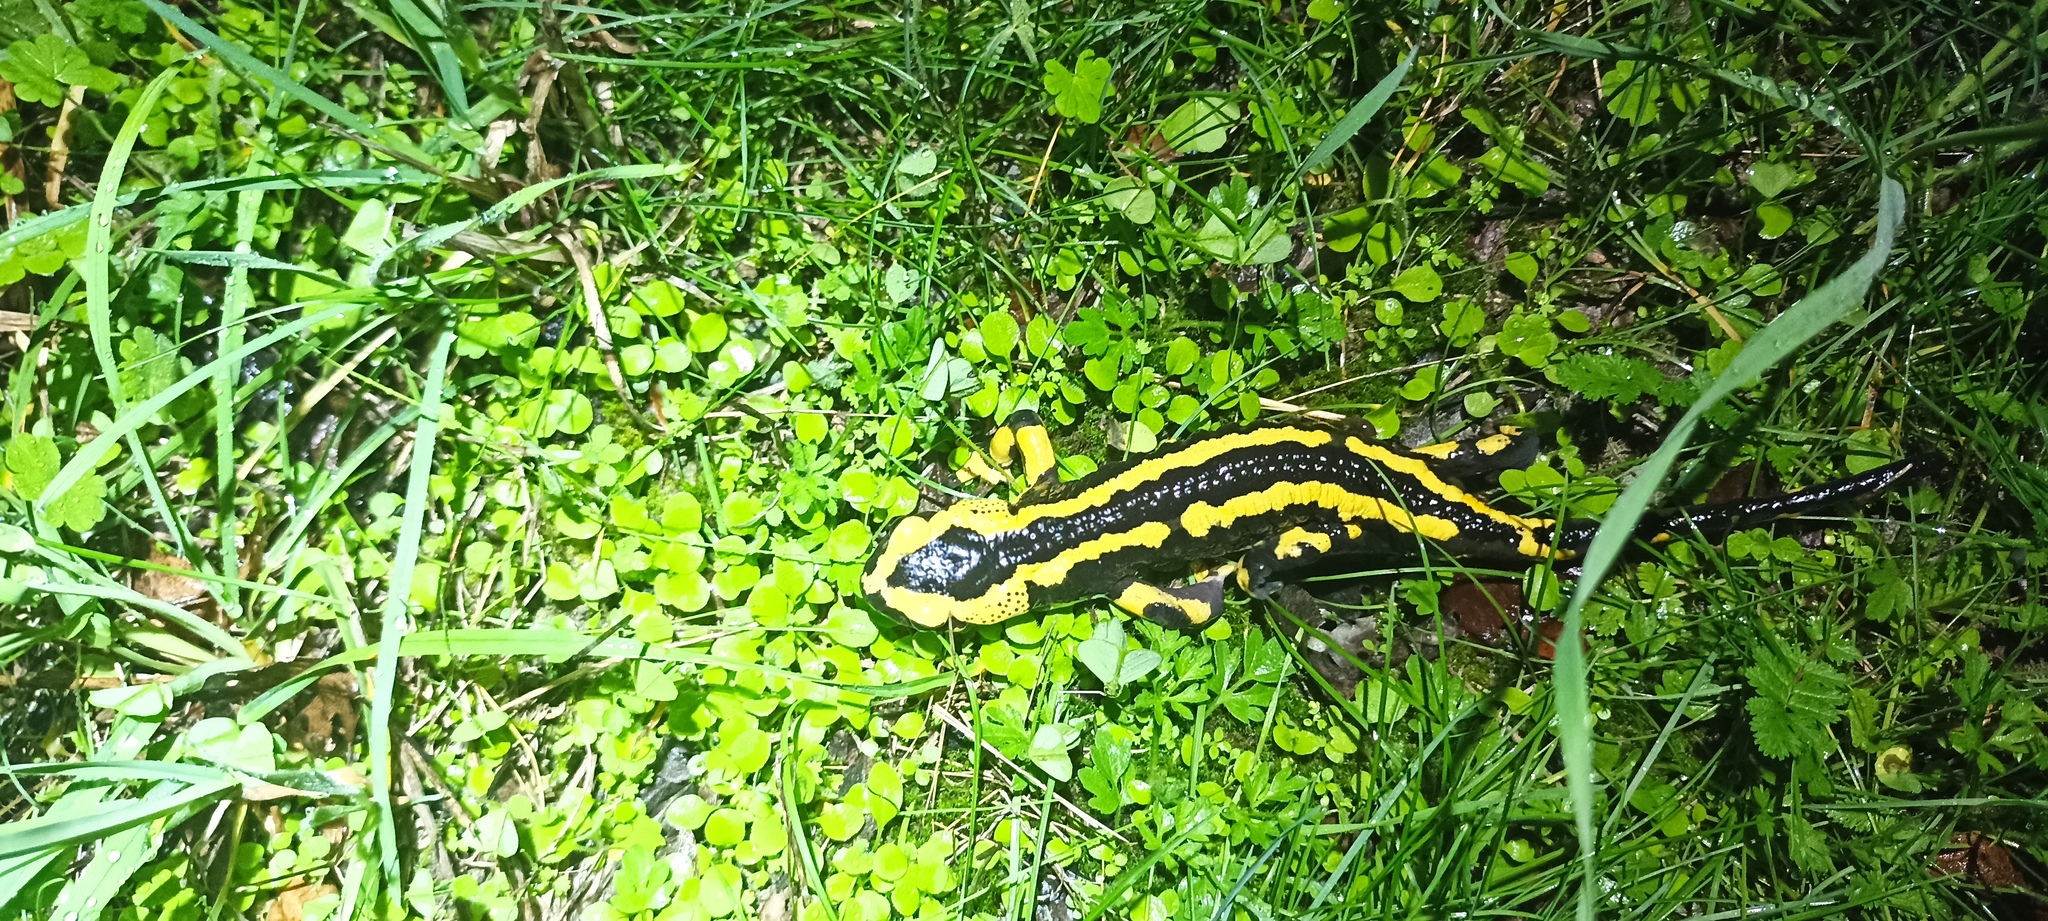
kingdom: Animalia
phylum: Chordata
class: Amphibia
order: Caudata
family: Salamandridae
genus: Salamandra
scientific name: Salamandra salamandra
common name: Fire salamander
